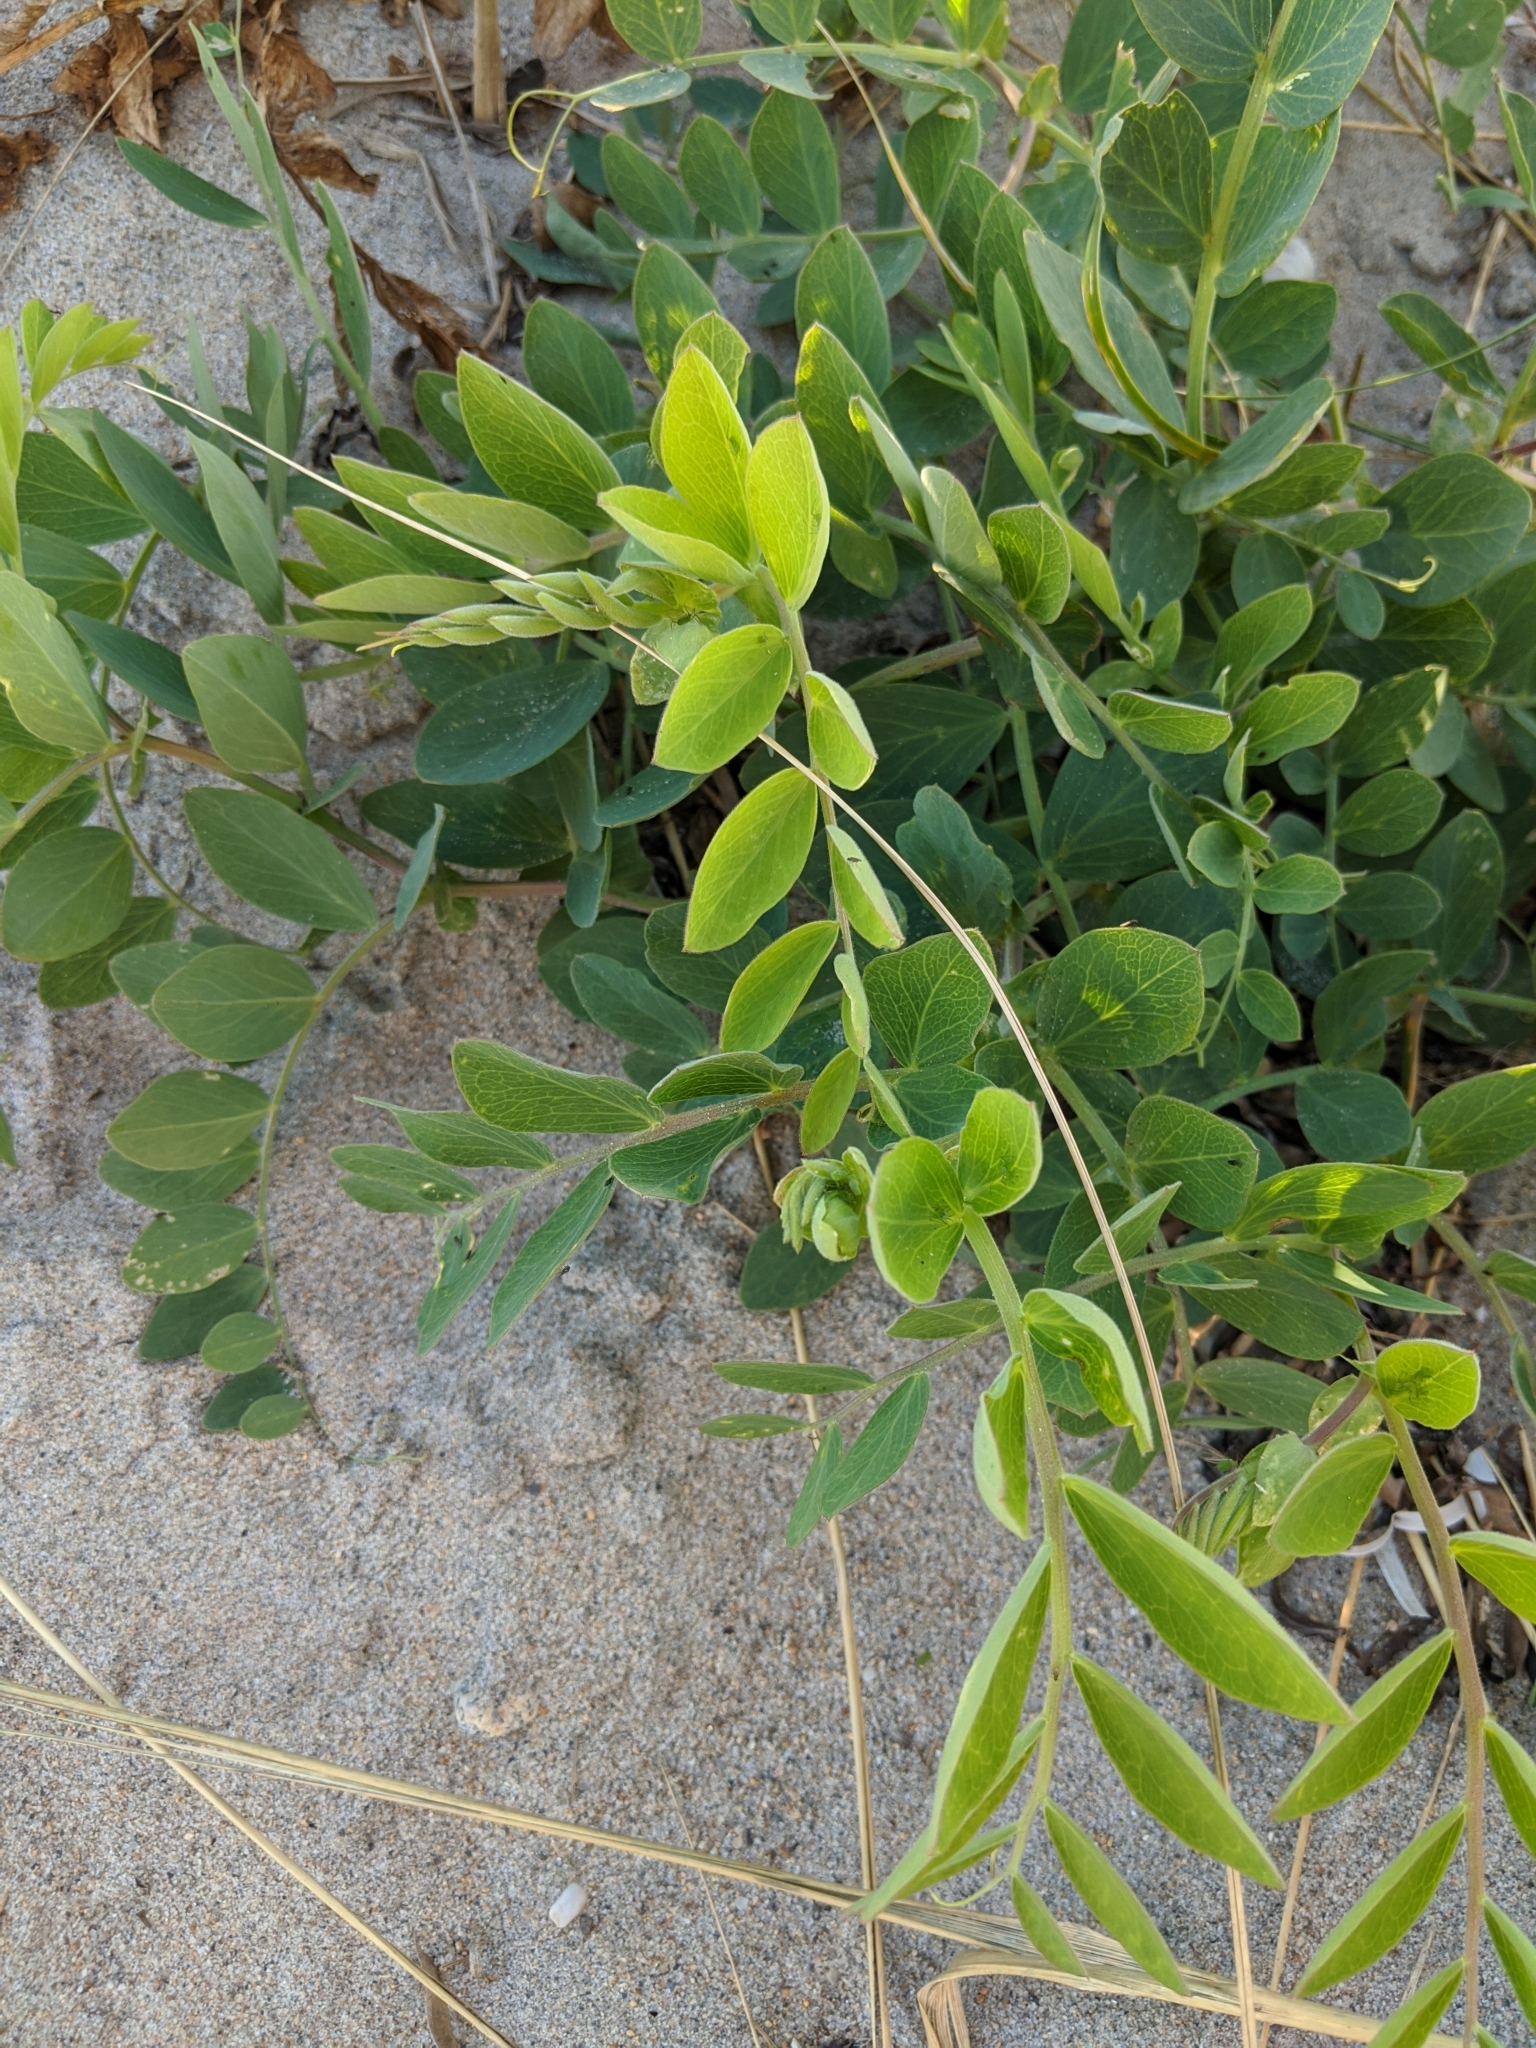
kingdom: Plantae
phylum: Tracheophyta
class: Magnoliopsida
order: Fabales
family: Fabaceae
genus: Lathyrus
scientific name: Lathyrus japonicus
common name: Sea pea
